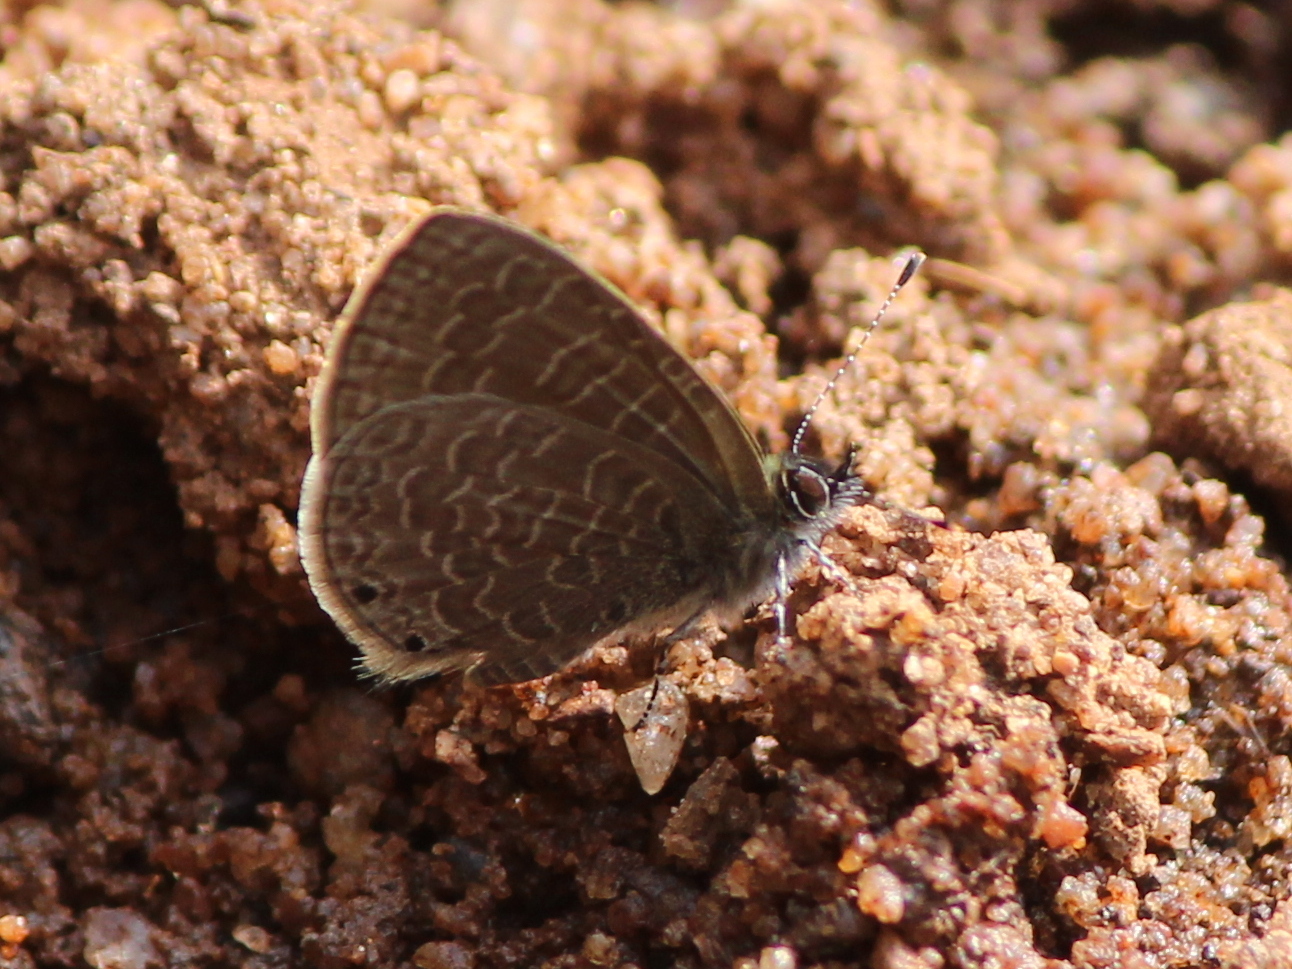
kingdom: Animalia
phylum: Arthropoda
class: Insecta
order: Lepidoptera
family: Lycaenidae
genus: Petrelaea
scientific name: Petrelaea dana
